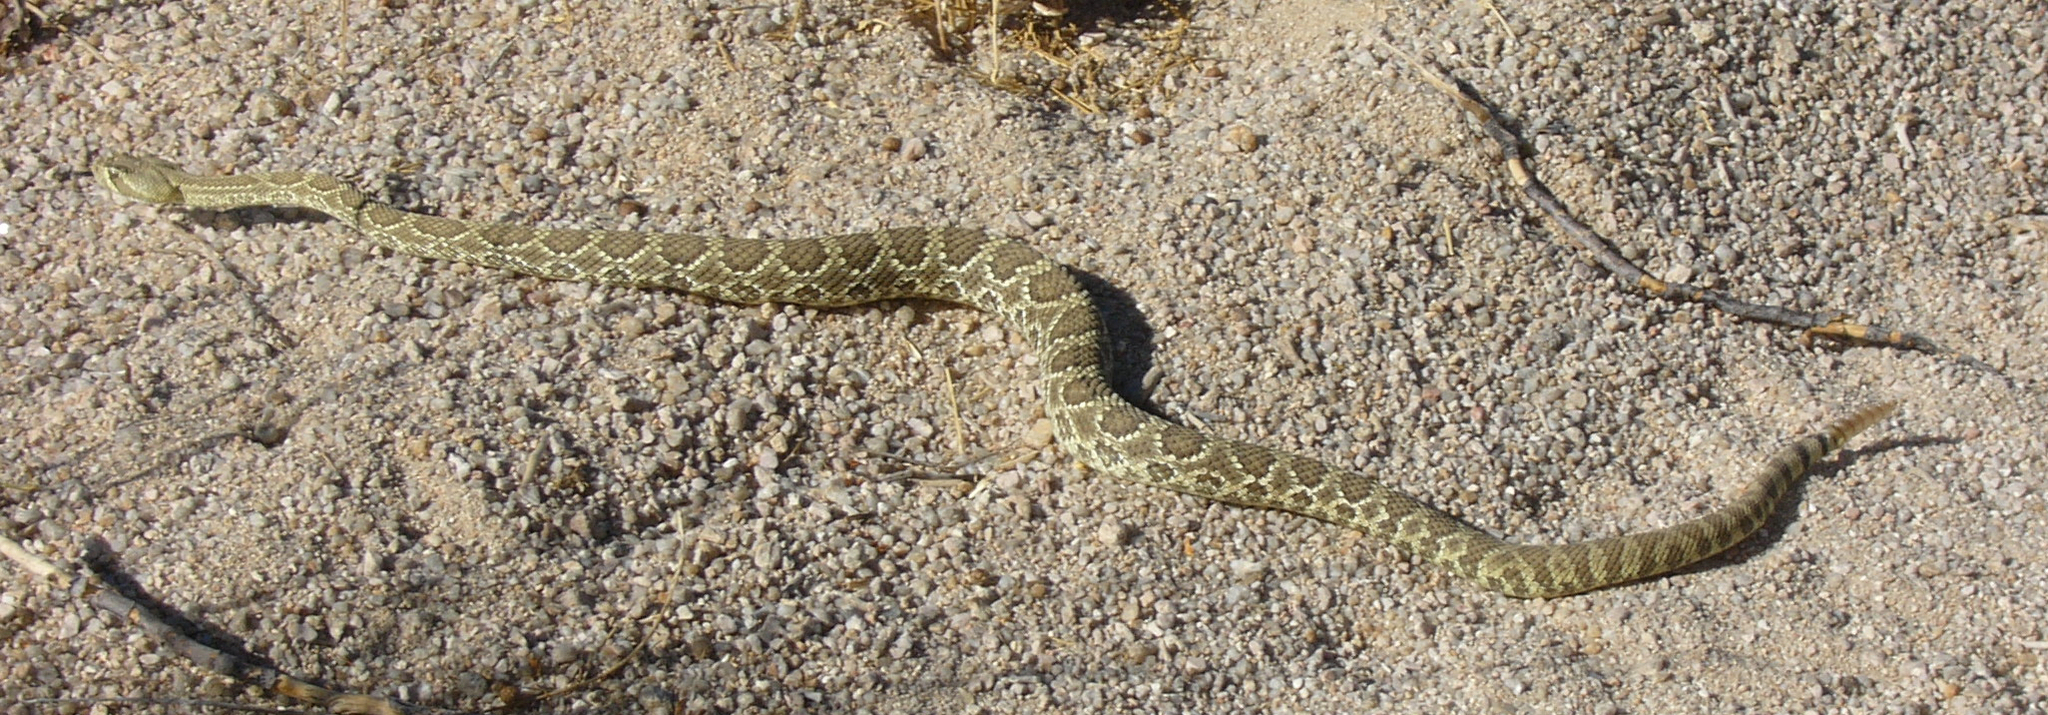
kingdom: Animalia
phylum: Chordata
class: Squamata
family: Viperidae
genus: Crotalus
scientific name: Crotalus scutulatus
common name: Scutulatus
